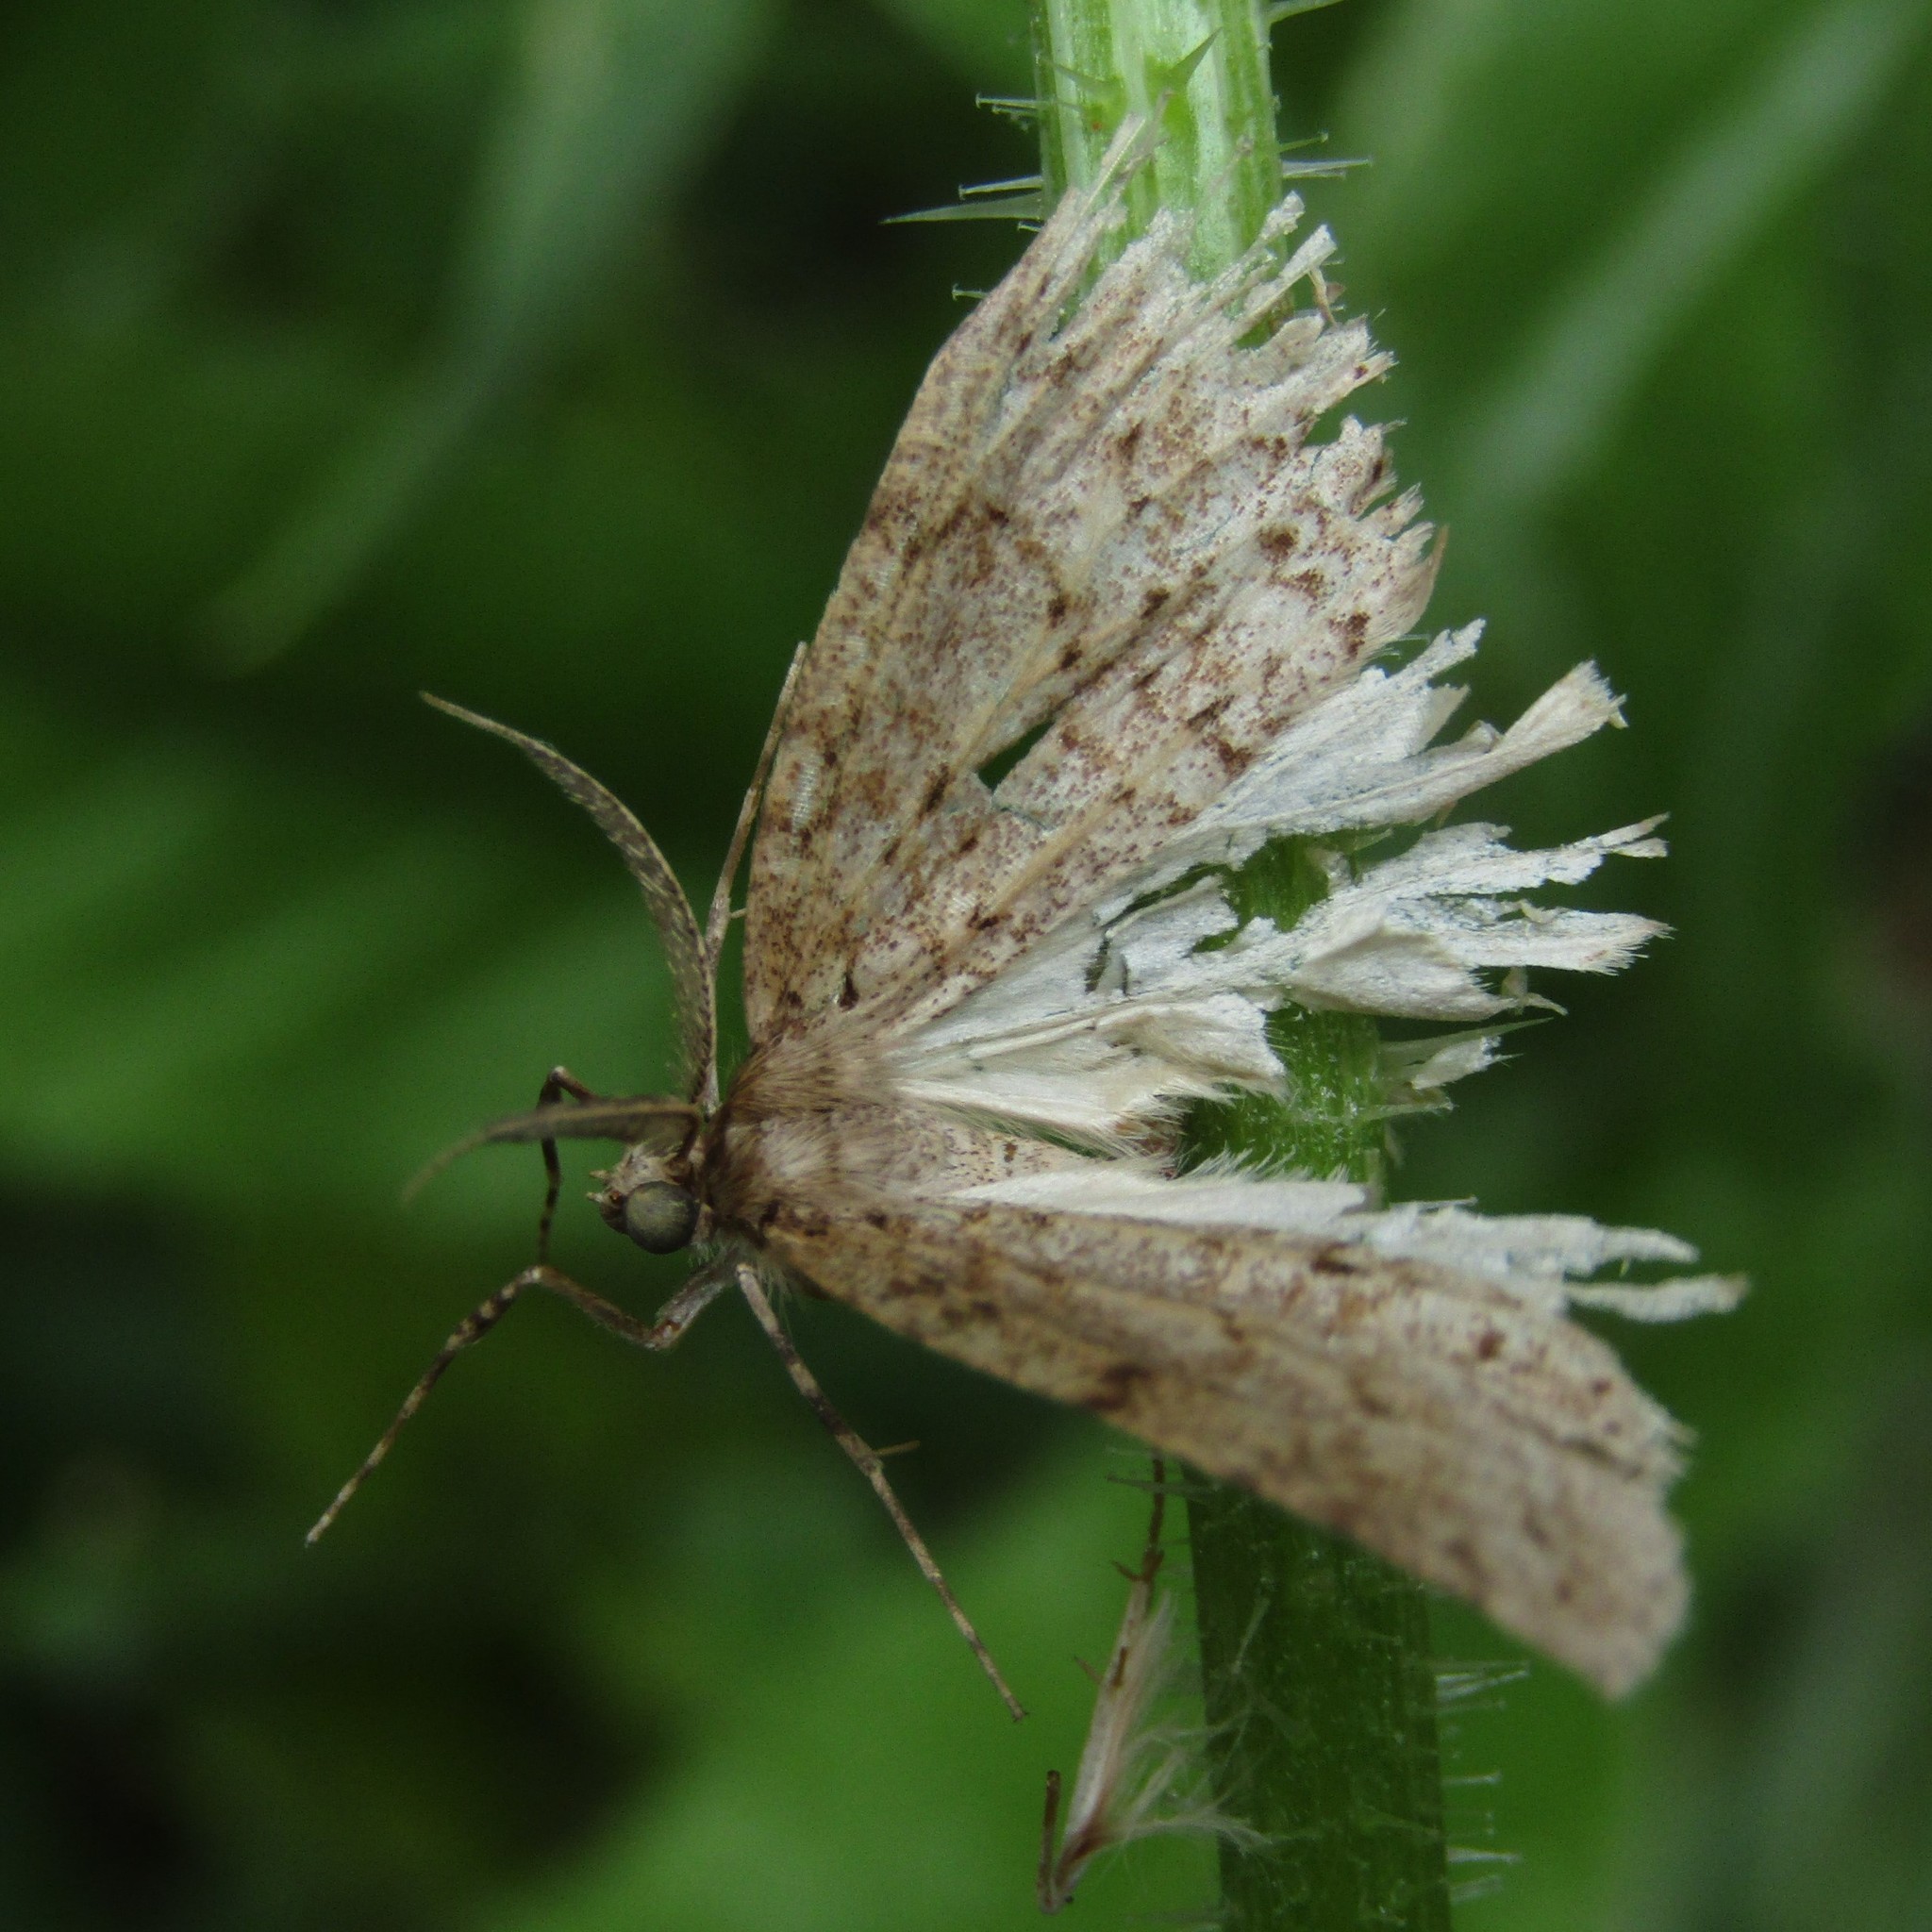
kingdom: Animalia
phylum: Arthropoda
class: Insecta
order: Lepidoptera
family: Geometridae
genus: Pseudocoremia
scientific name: Pseudocoremia fenerata
